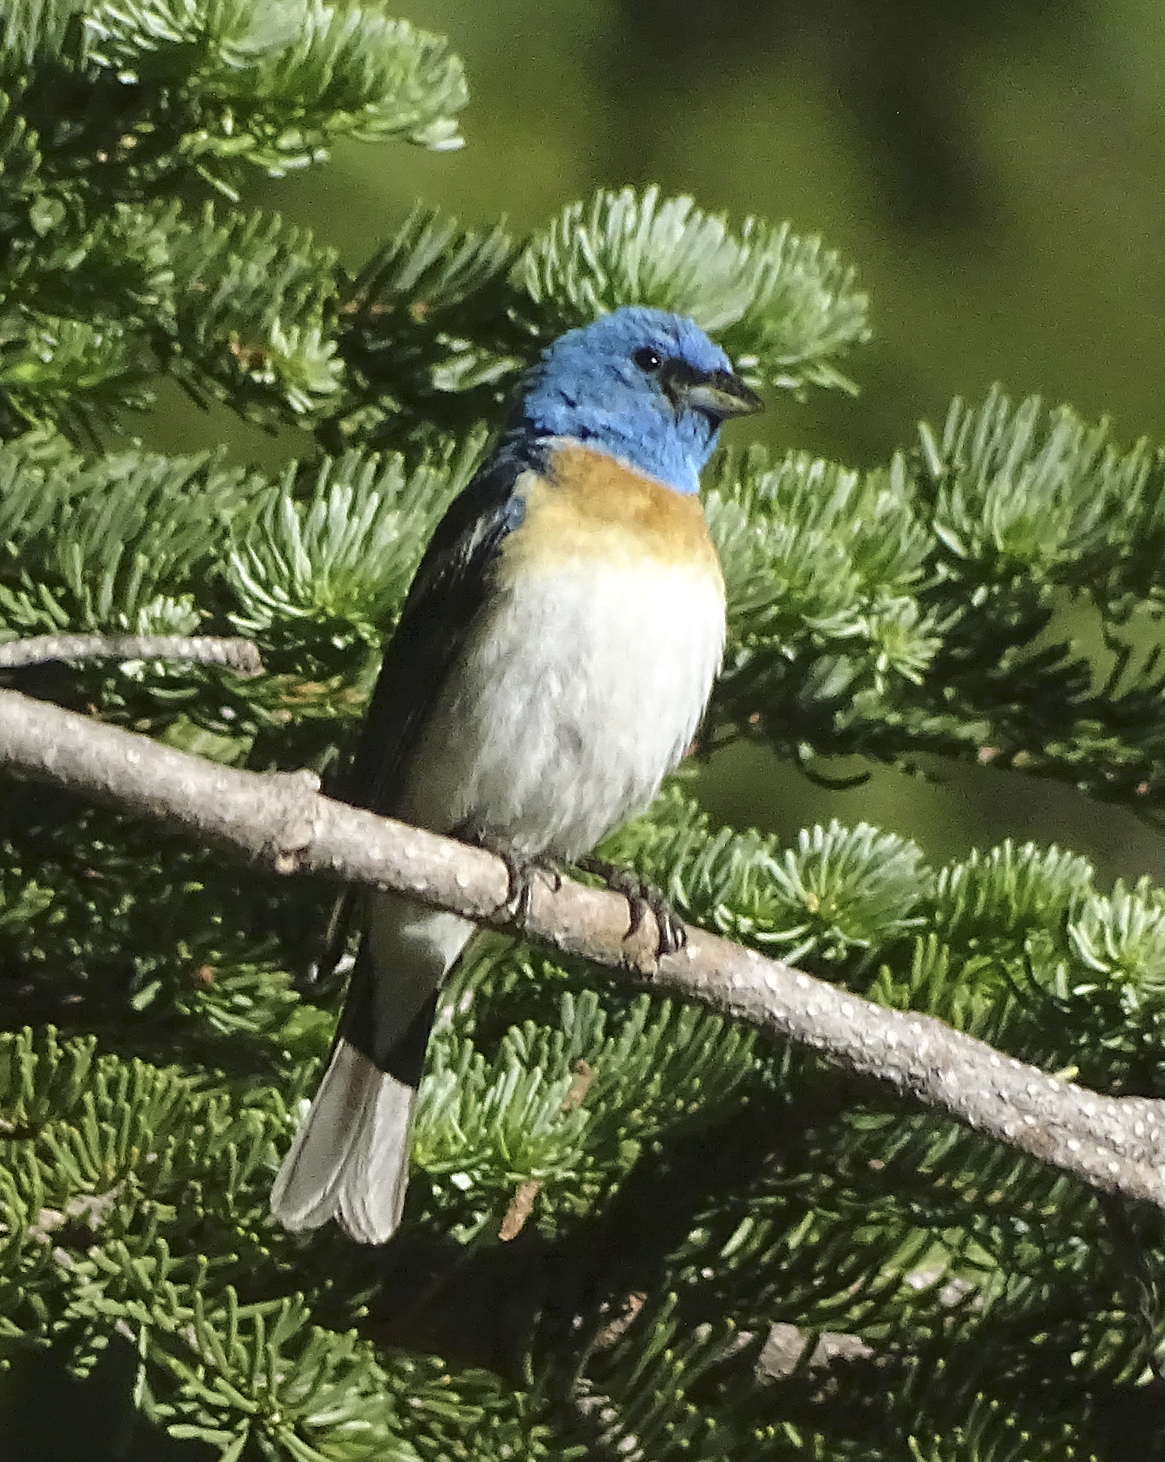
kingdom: Animalia
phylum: Chordata
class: Aves
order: Passeriformes
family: Cardinalidae
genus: Passerina
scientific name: Passerina amoena
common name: Lazuli bunting
